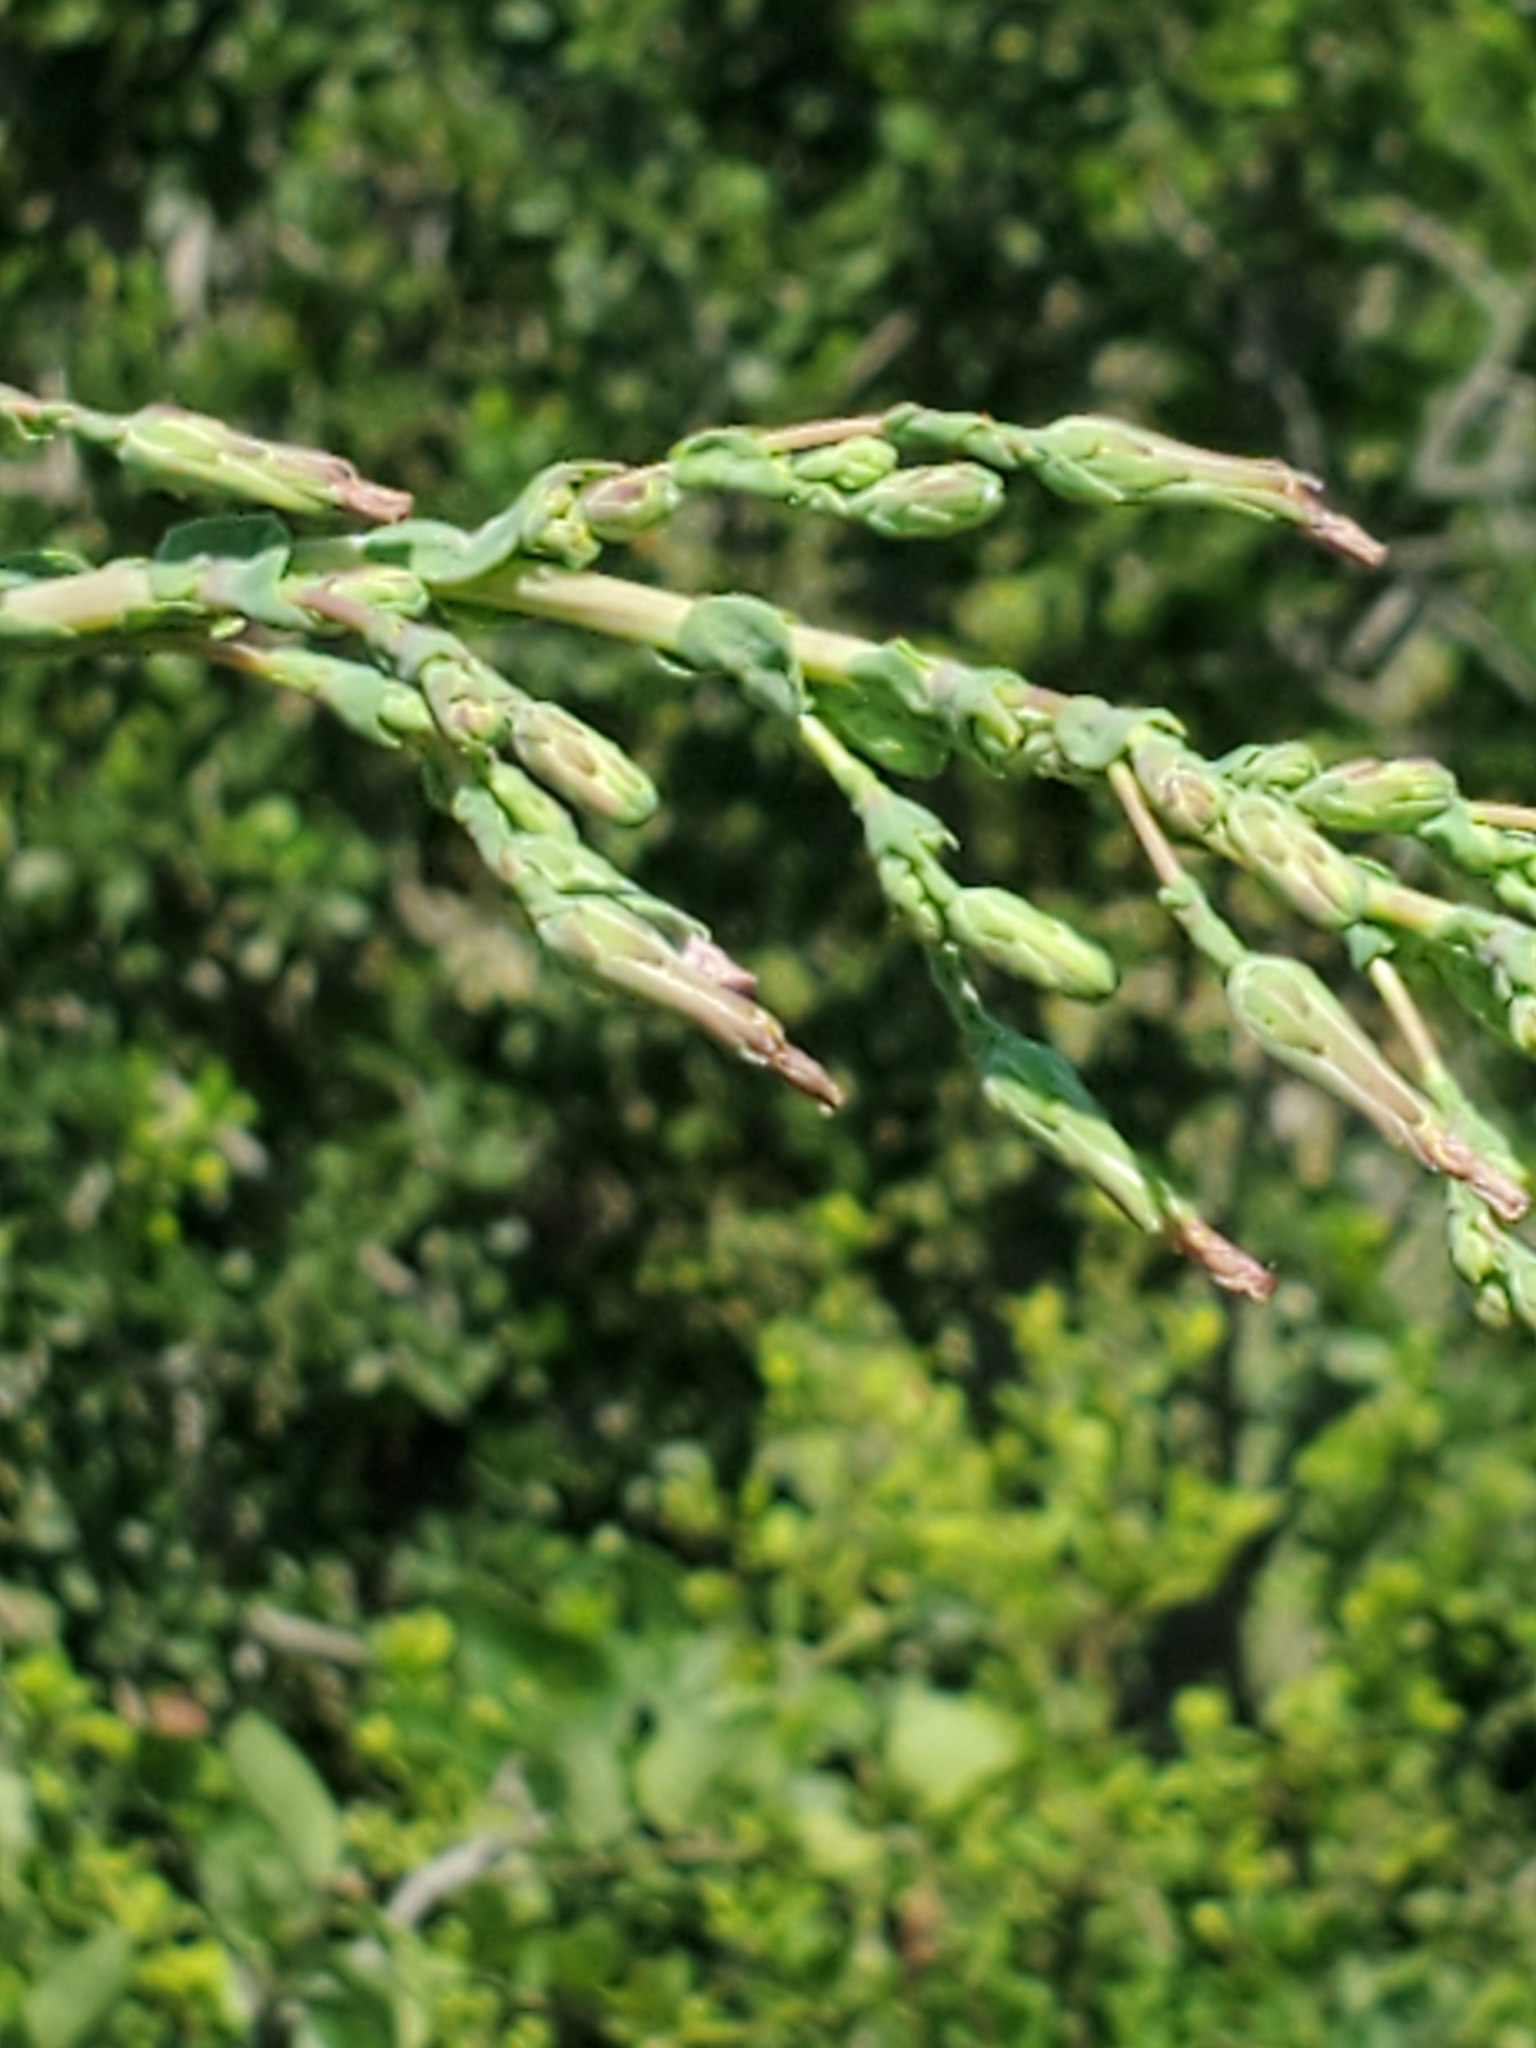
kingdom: Plantae
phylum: Tracheophyta
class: Magnoliopsida
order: Asterales
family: Asteraceae
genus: Lactuca
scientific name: Lactuca serriola
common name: Prickly lettuce
